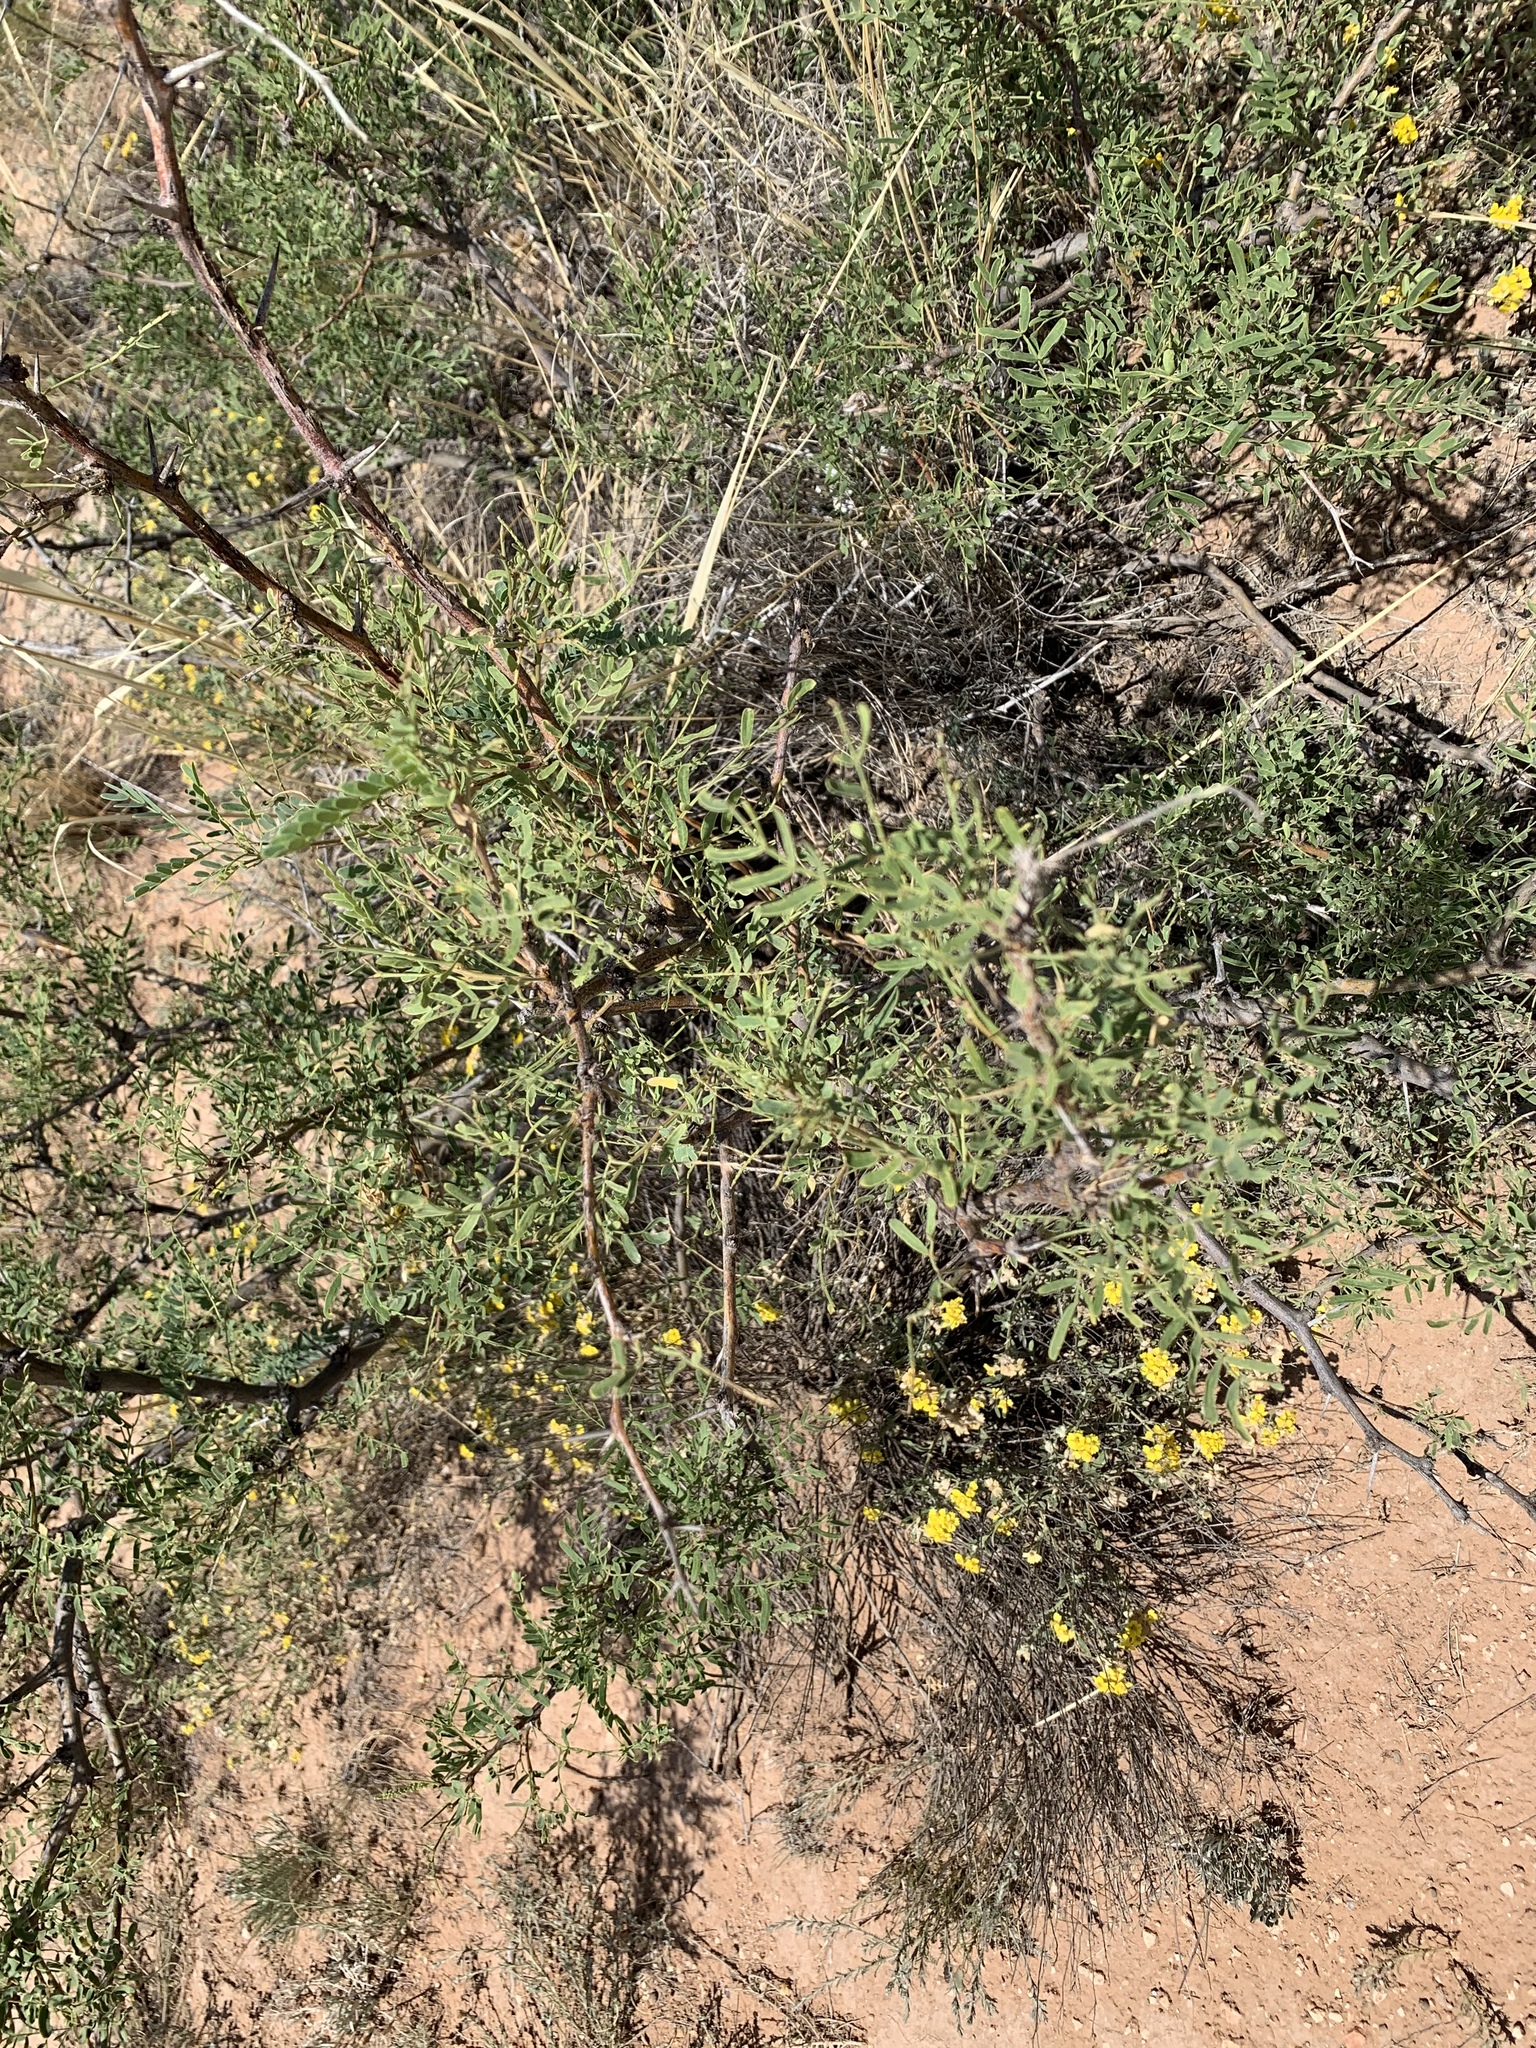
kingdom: Plantae
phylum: Tracheophyta
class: Magnoliopsida
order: Fabales
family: Fabaceae
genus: Prosopis
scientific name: Prosopis glandulosa
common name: Honey mesquite
